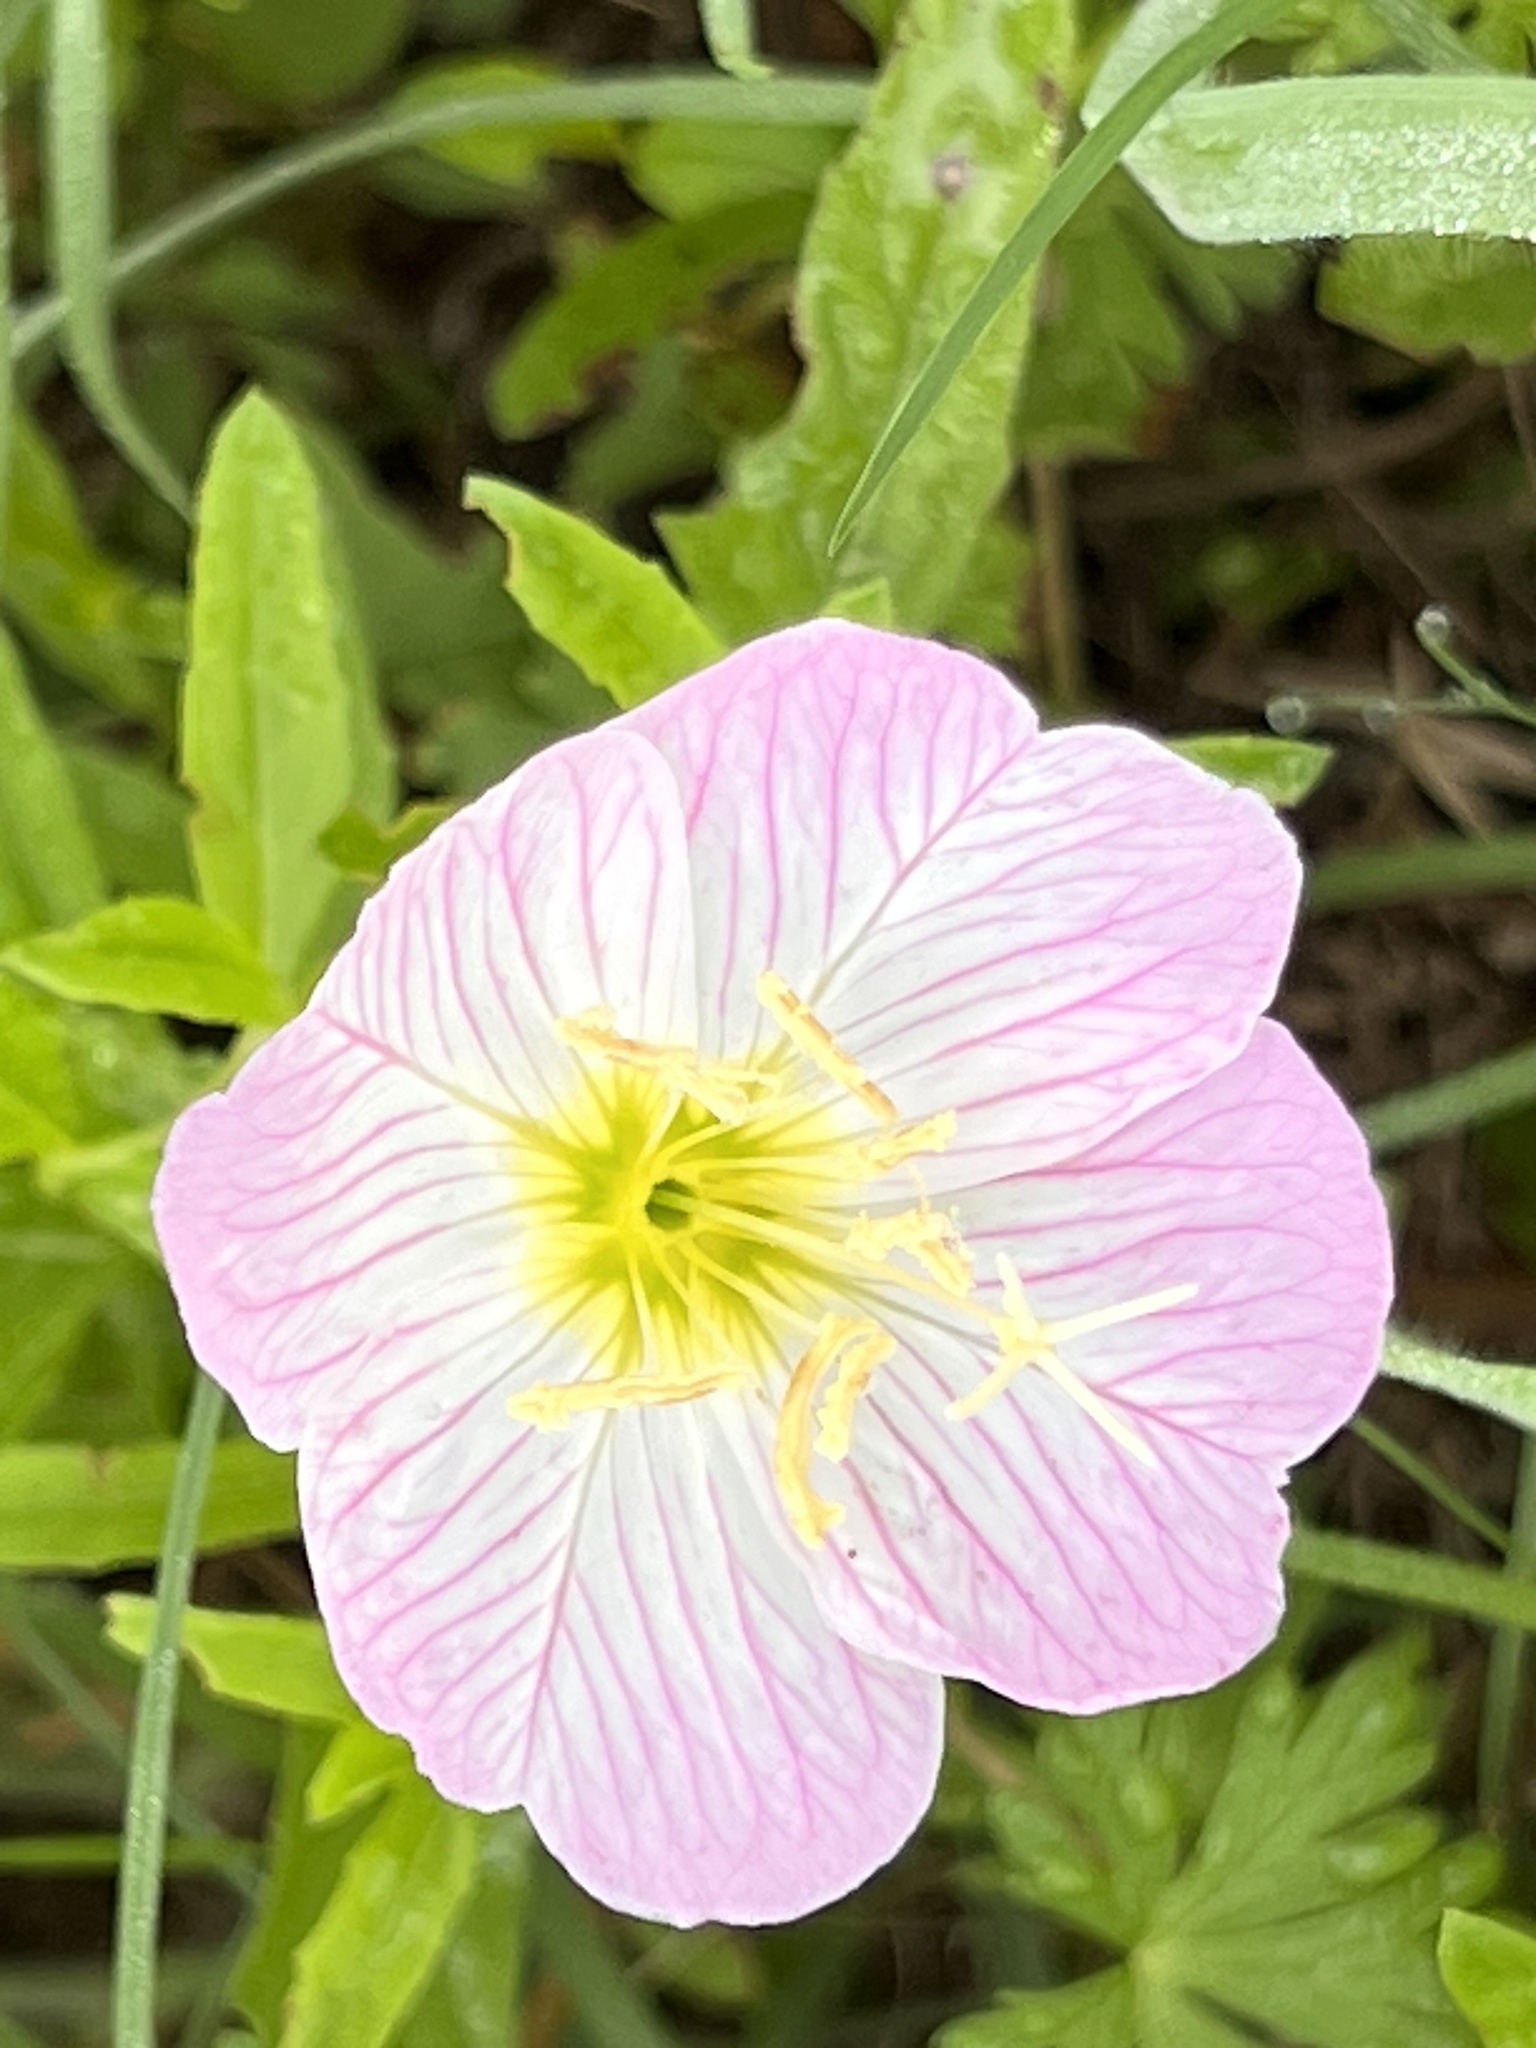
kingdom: Plantae
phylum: Tracheophyta
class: Magnoliopsida
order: Myrtales
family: Onagraceae
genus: Oenothera
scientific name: Oenothera speciosa
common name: White evening-primrose
